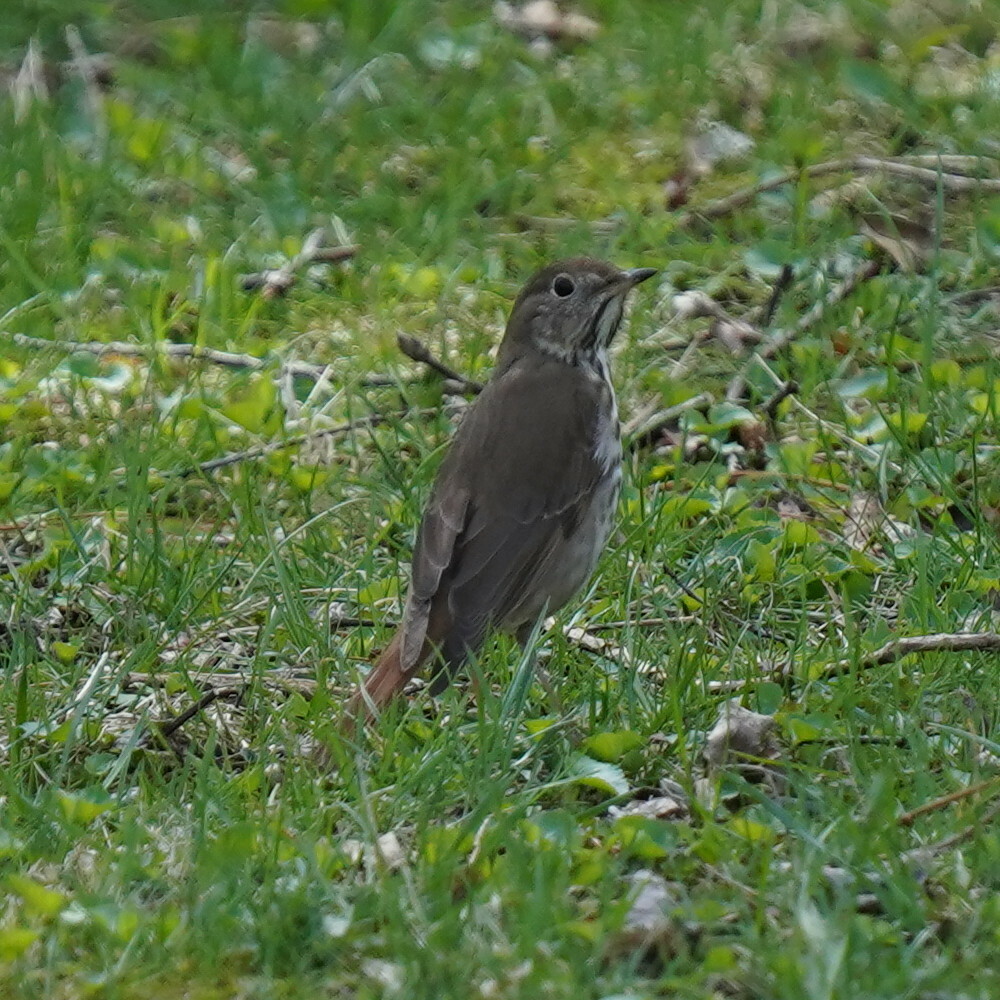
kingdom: Animalia
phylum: Chordata
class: Aves
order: Passeriformes
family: Turdidae
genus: Catharus
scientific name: Catharus guttatus
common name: Hermit thrush
